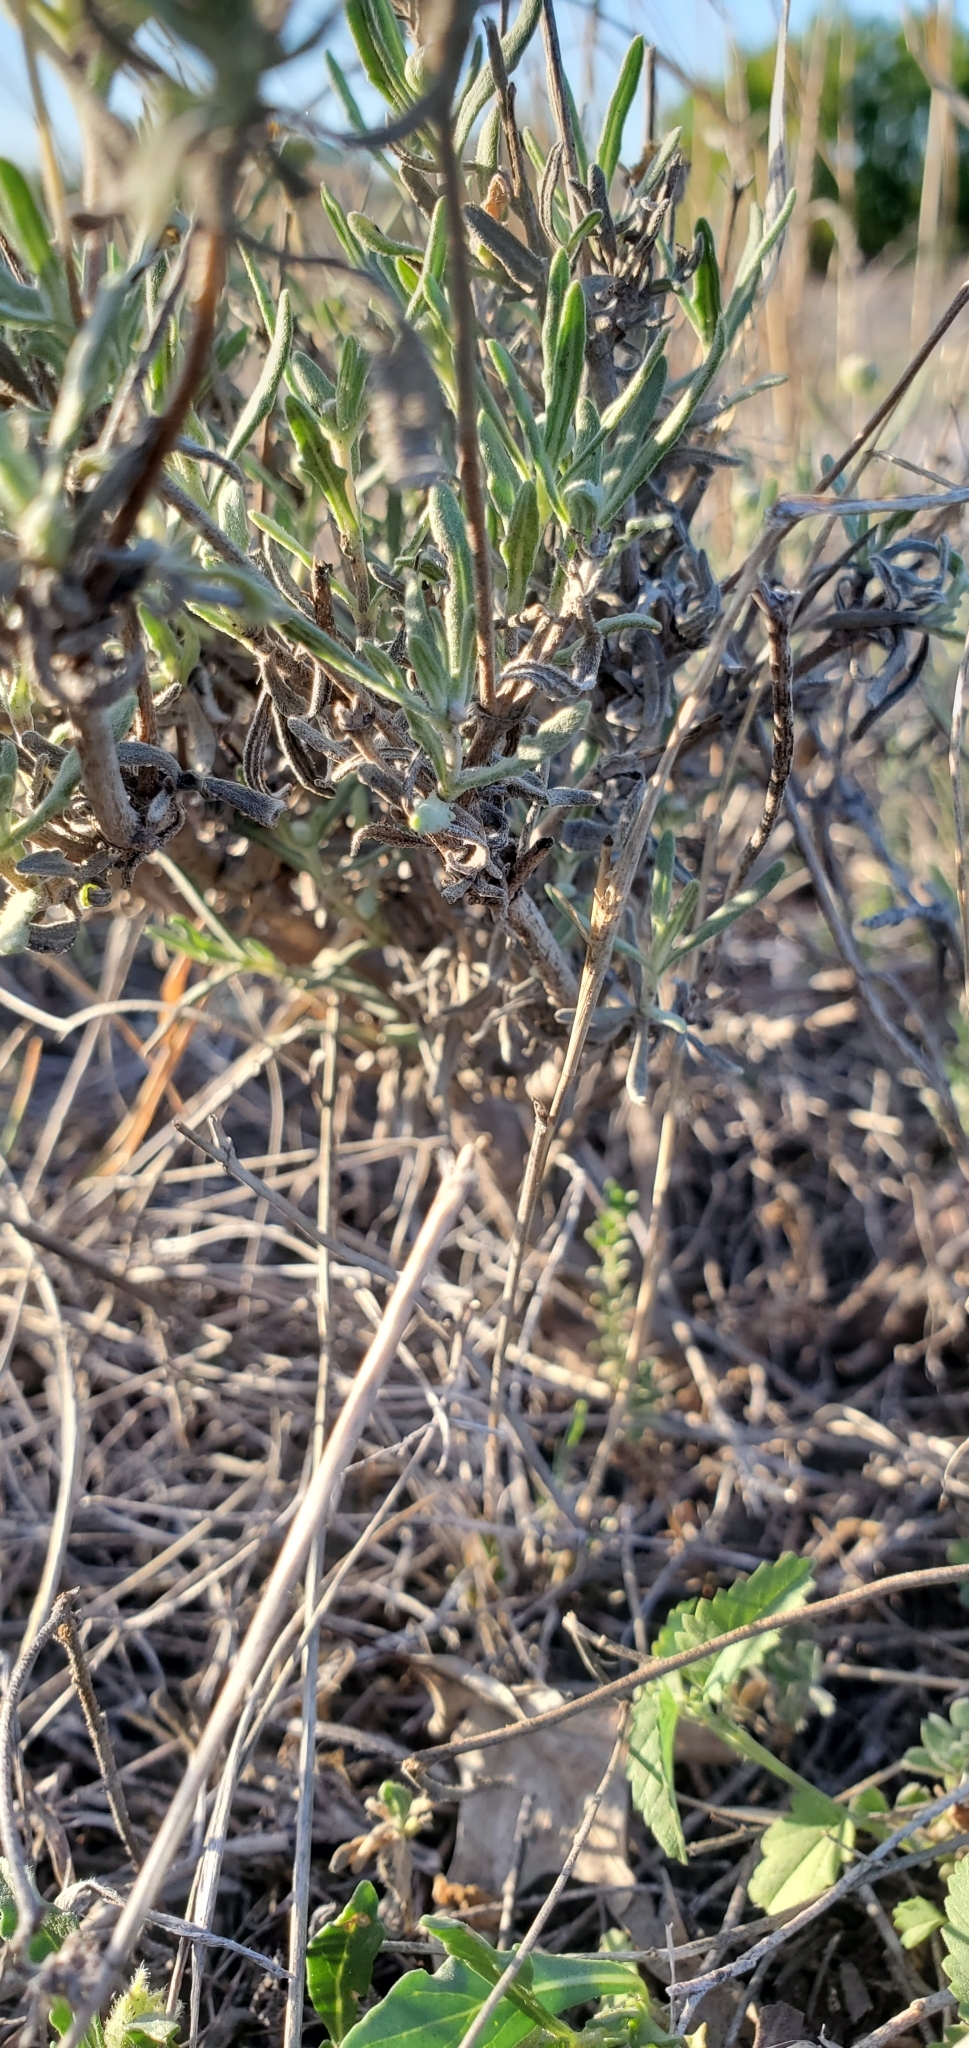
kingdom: Plantae
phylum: Tracheophyta
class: Magnoliopsida
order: Asterales
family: Asteraceae
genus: Melampodium
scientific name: Melampodium leucanthum
